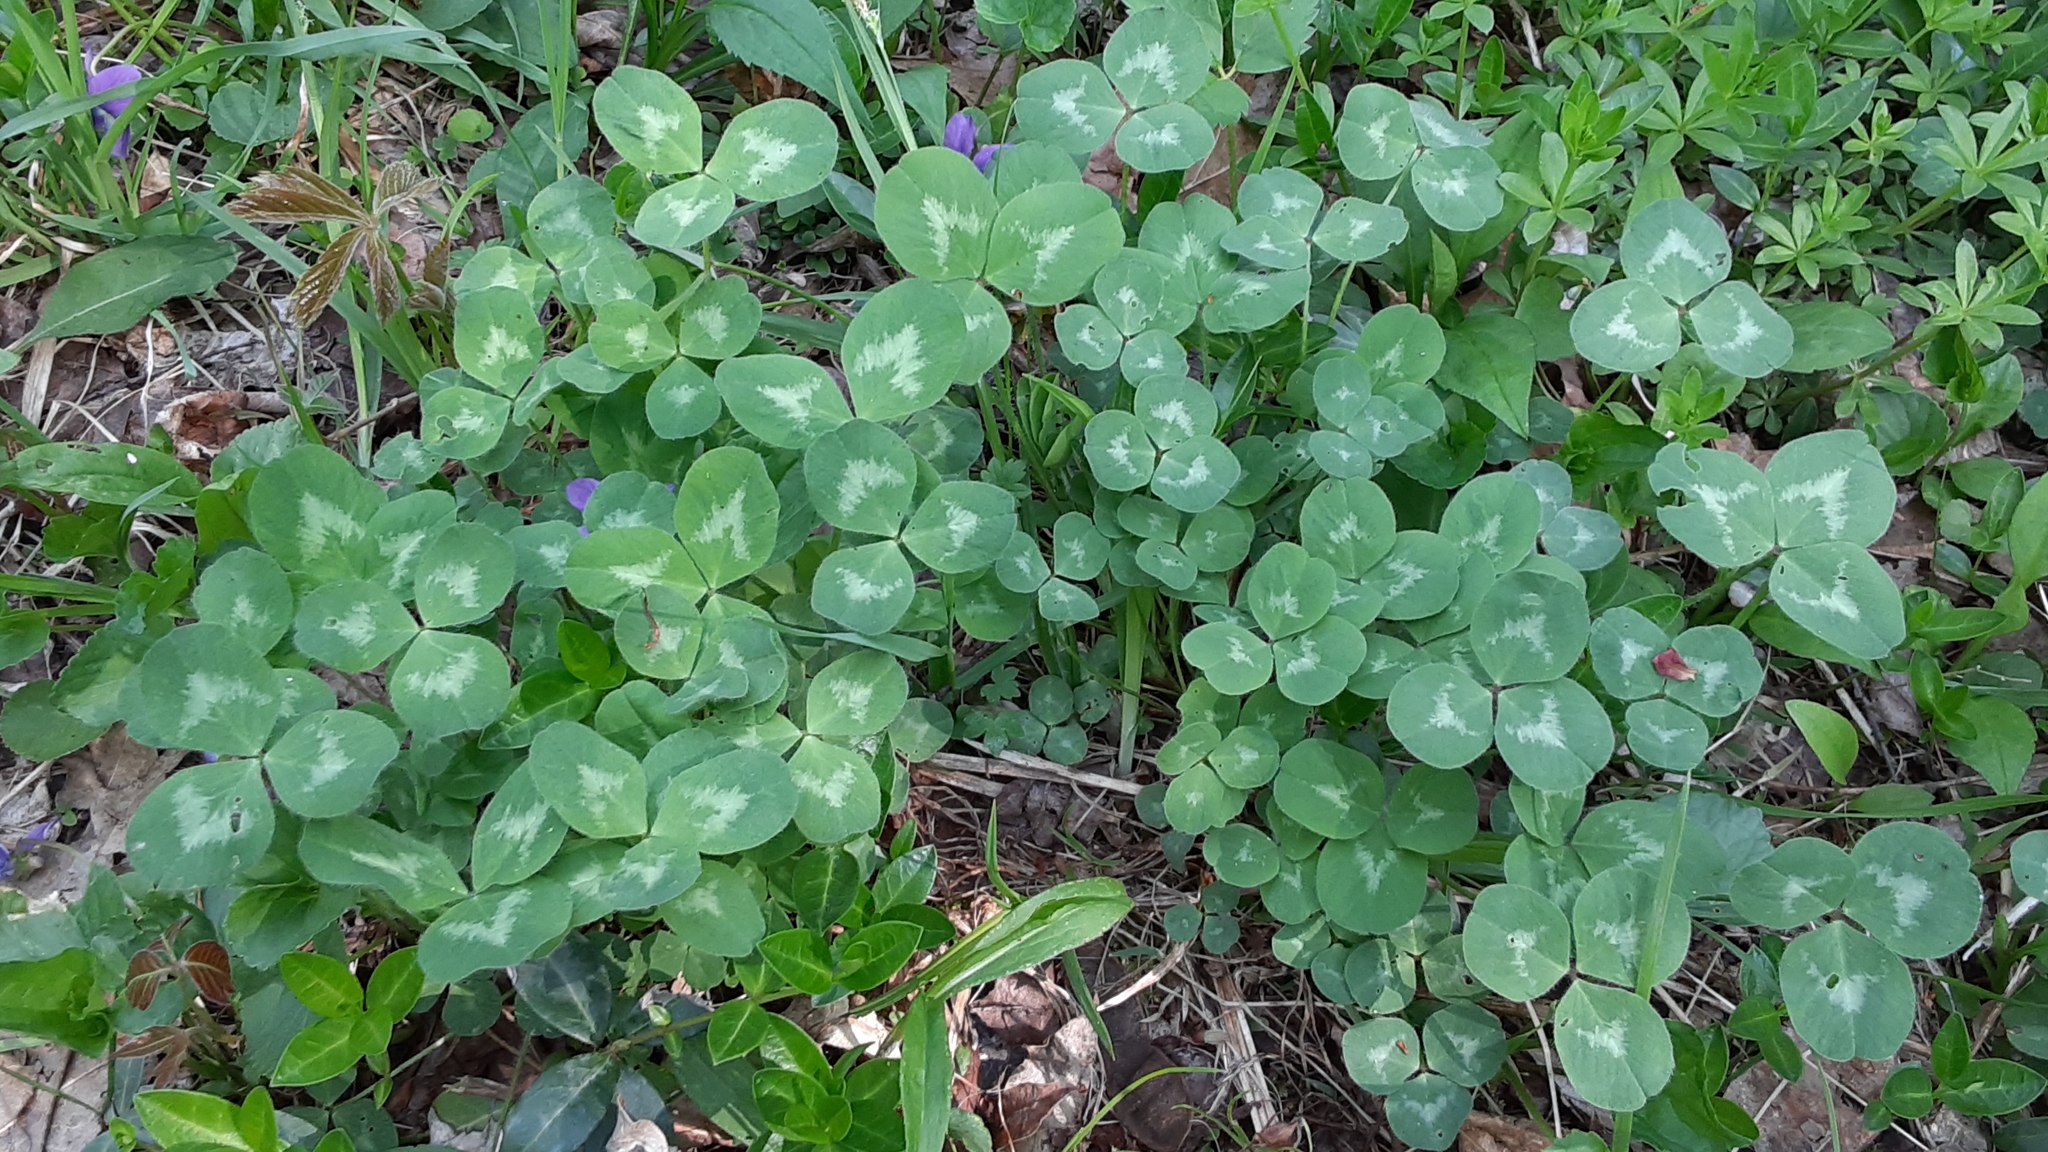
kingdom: Plantae
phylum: Tracheophyta
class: Magnoliopsida
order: Fabales
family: Fabaceae
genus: Trifolium
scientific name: Trifolium pratense
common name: Red clover
